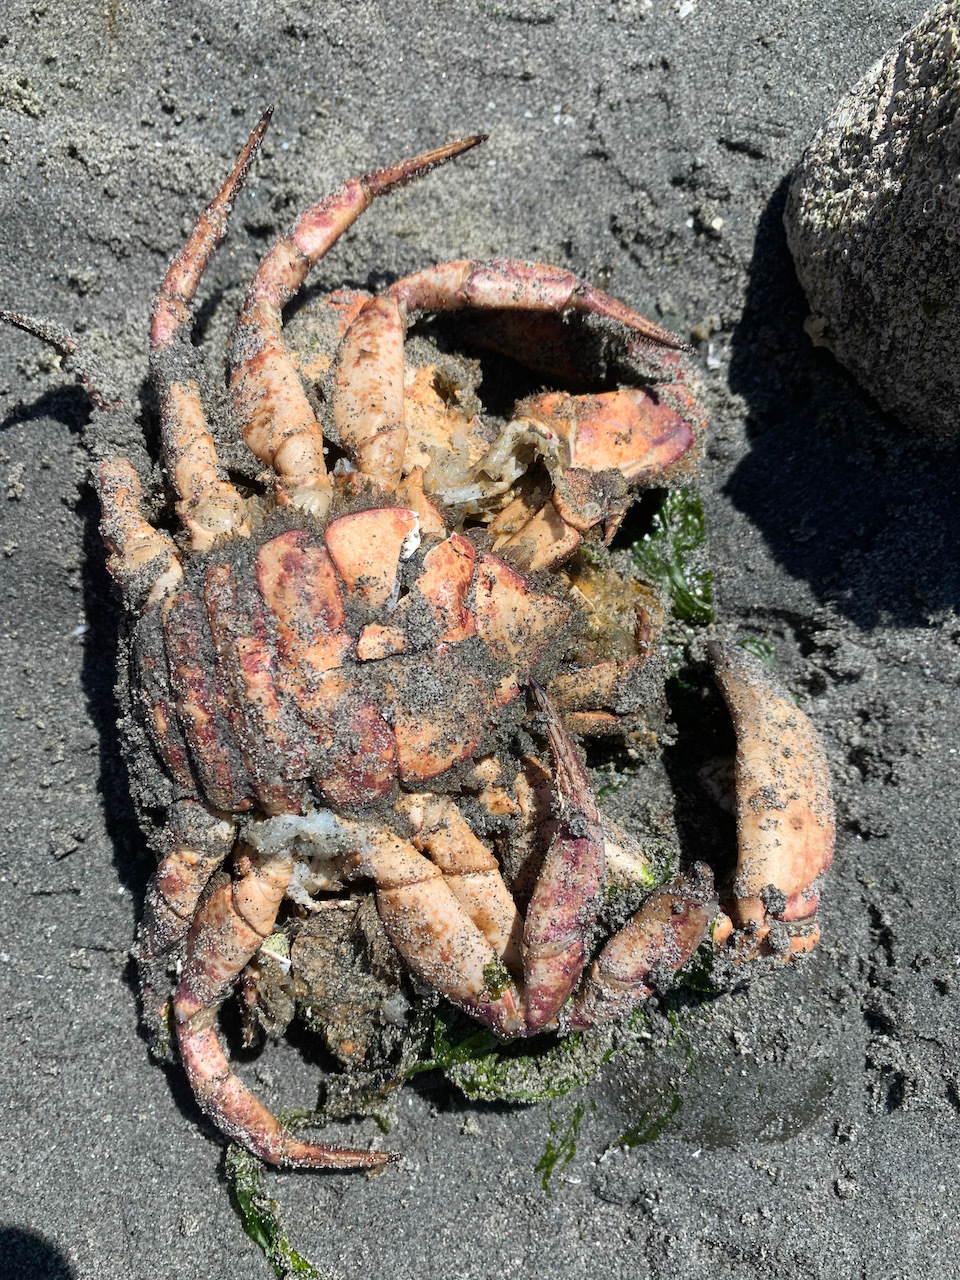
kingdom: Animalia
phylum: Arthropoda
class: Malacostraca
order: Decapoda
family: Cancridae
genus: Cancer
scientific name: Cancer productus
